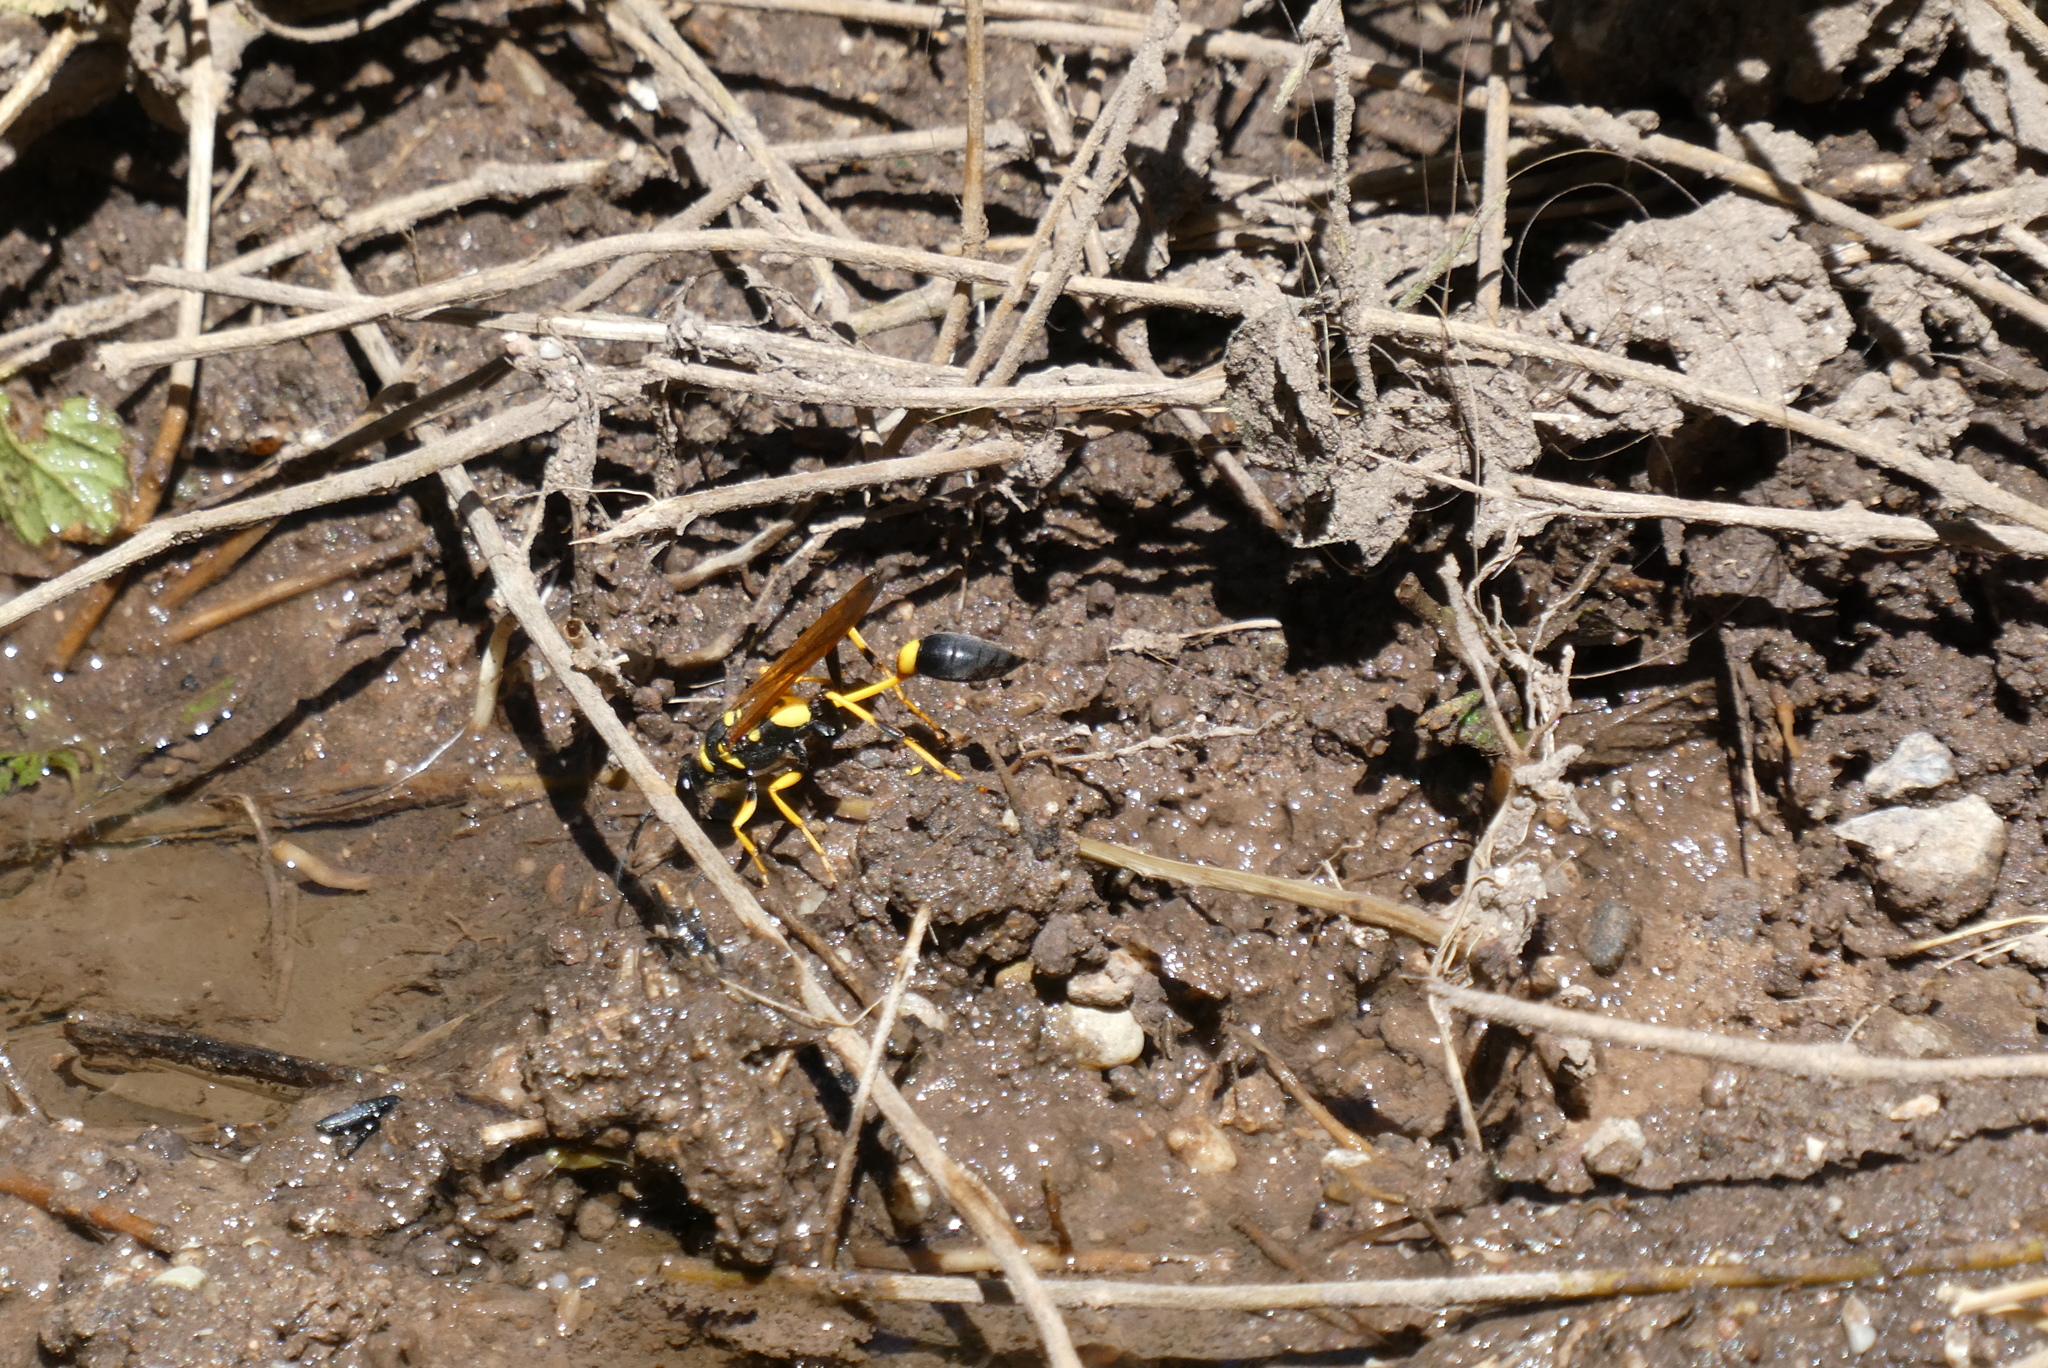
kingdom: Animalia
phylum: Arthropoda
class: Insecta
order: Hymenoptera
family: Sphecidae
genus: Sceliphron
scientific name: Sceliphron caementarium
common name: Mud dauber
